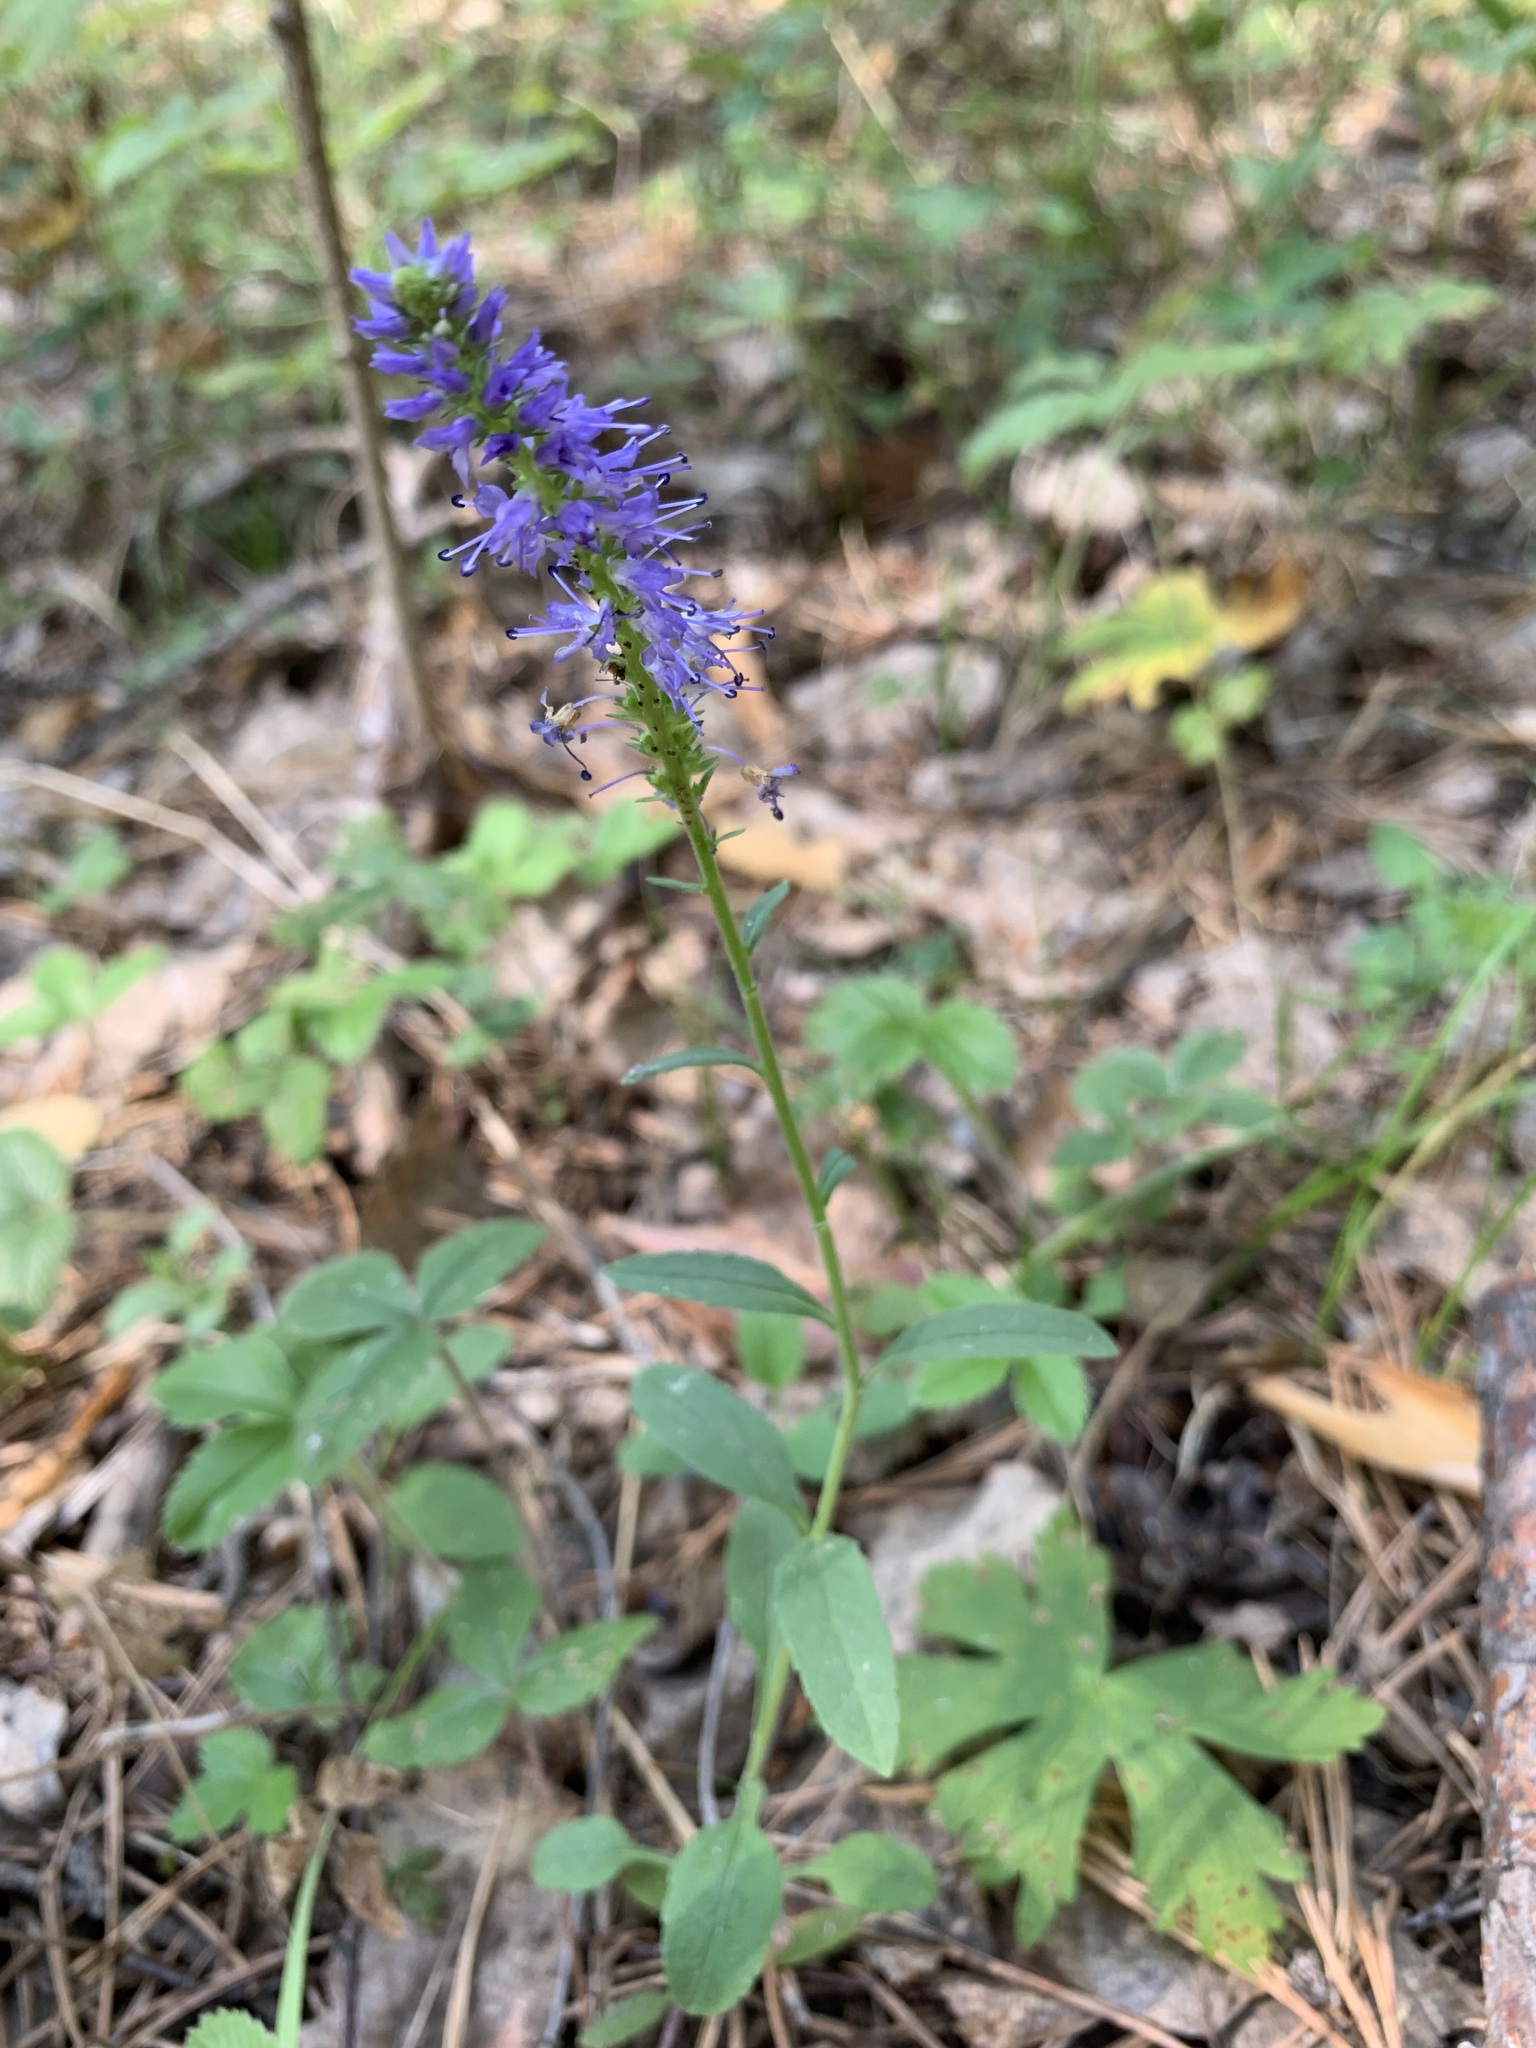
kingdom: Plantae
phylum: Tracheophyta
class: Magnoliopsida
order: Lamiales
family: Plantaginaceae
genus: Veronica
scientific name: Veronica spicata
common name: Spiked speedwell
